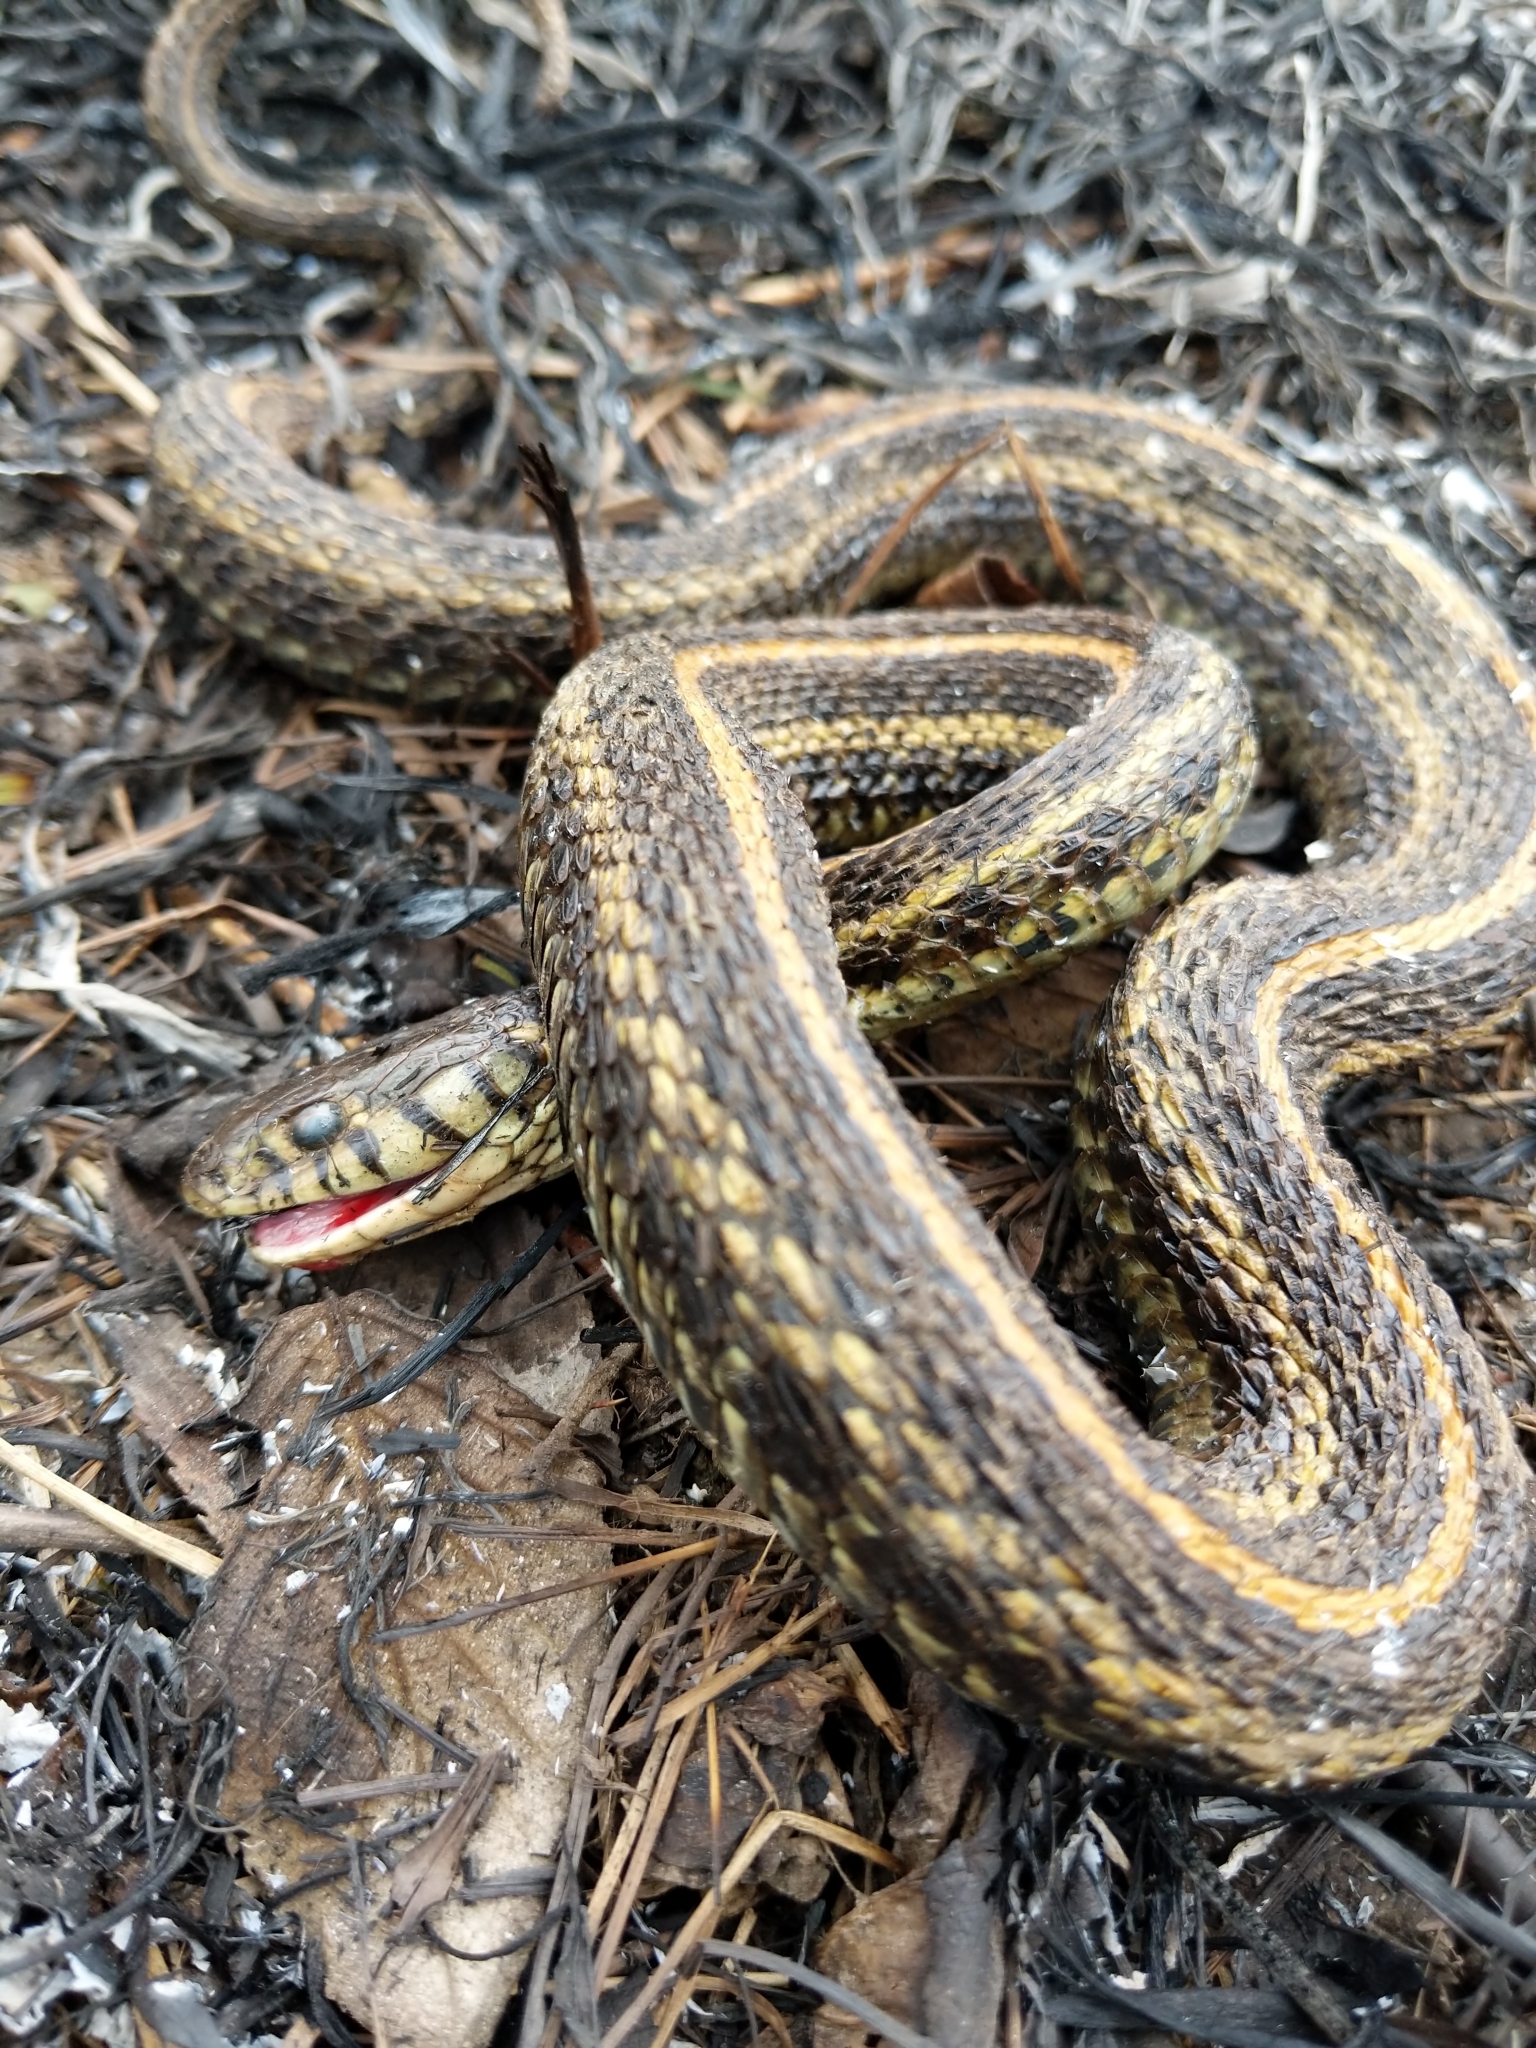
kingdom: Animalia
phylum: Chordata
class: Squamata
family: Colubridae
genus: Thamnophis
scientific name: Thamnophis radix
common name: Plains garter snake
